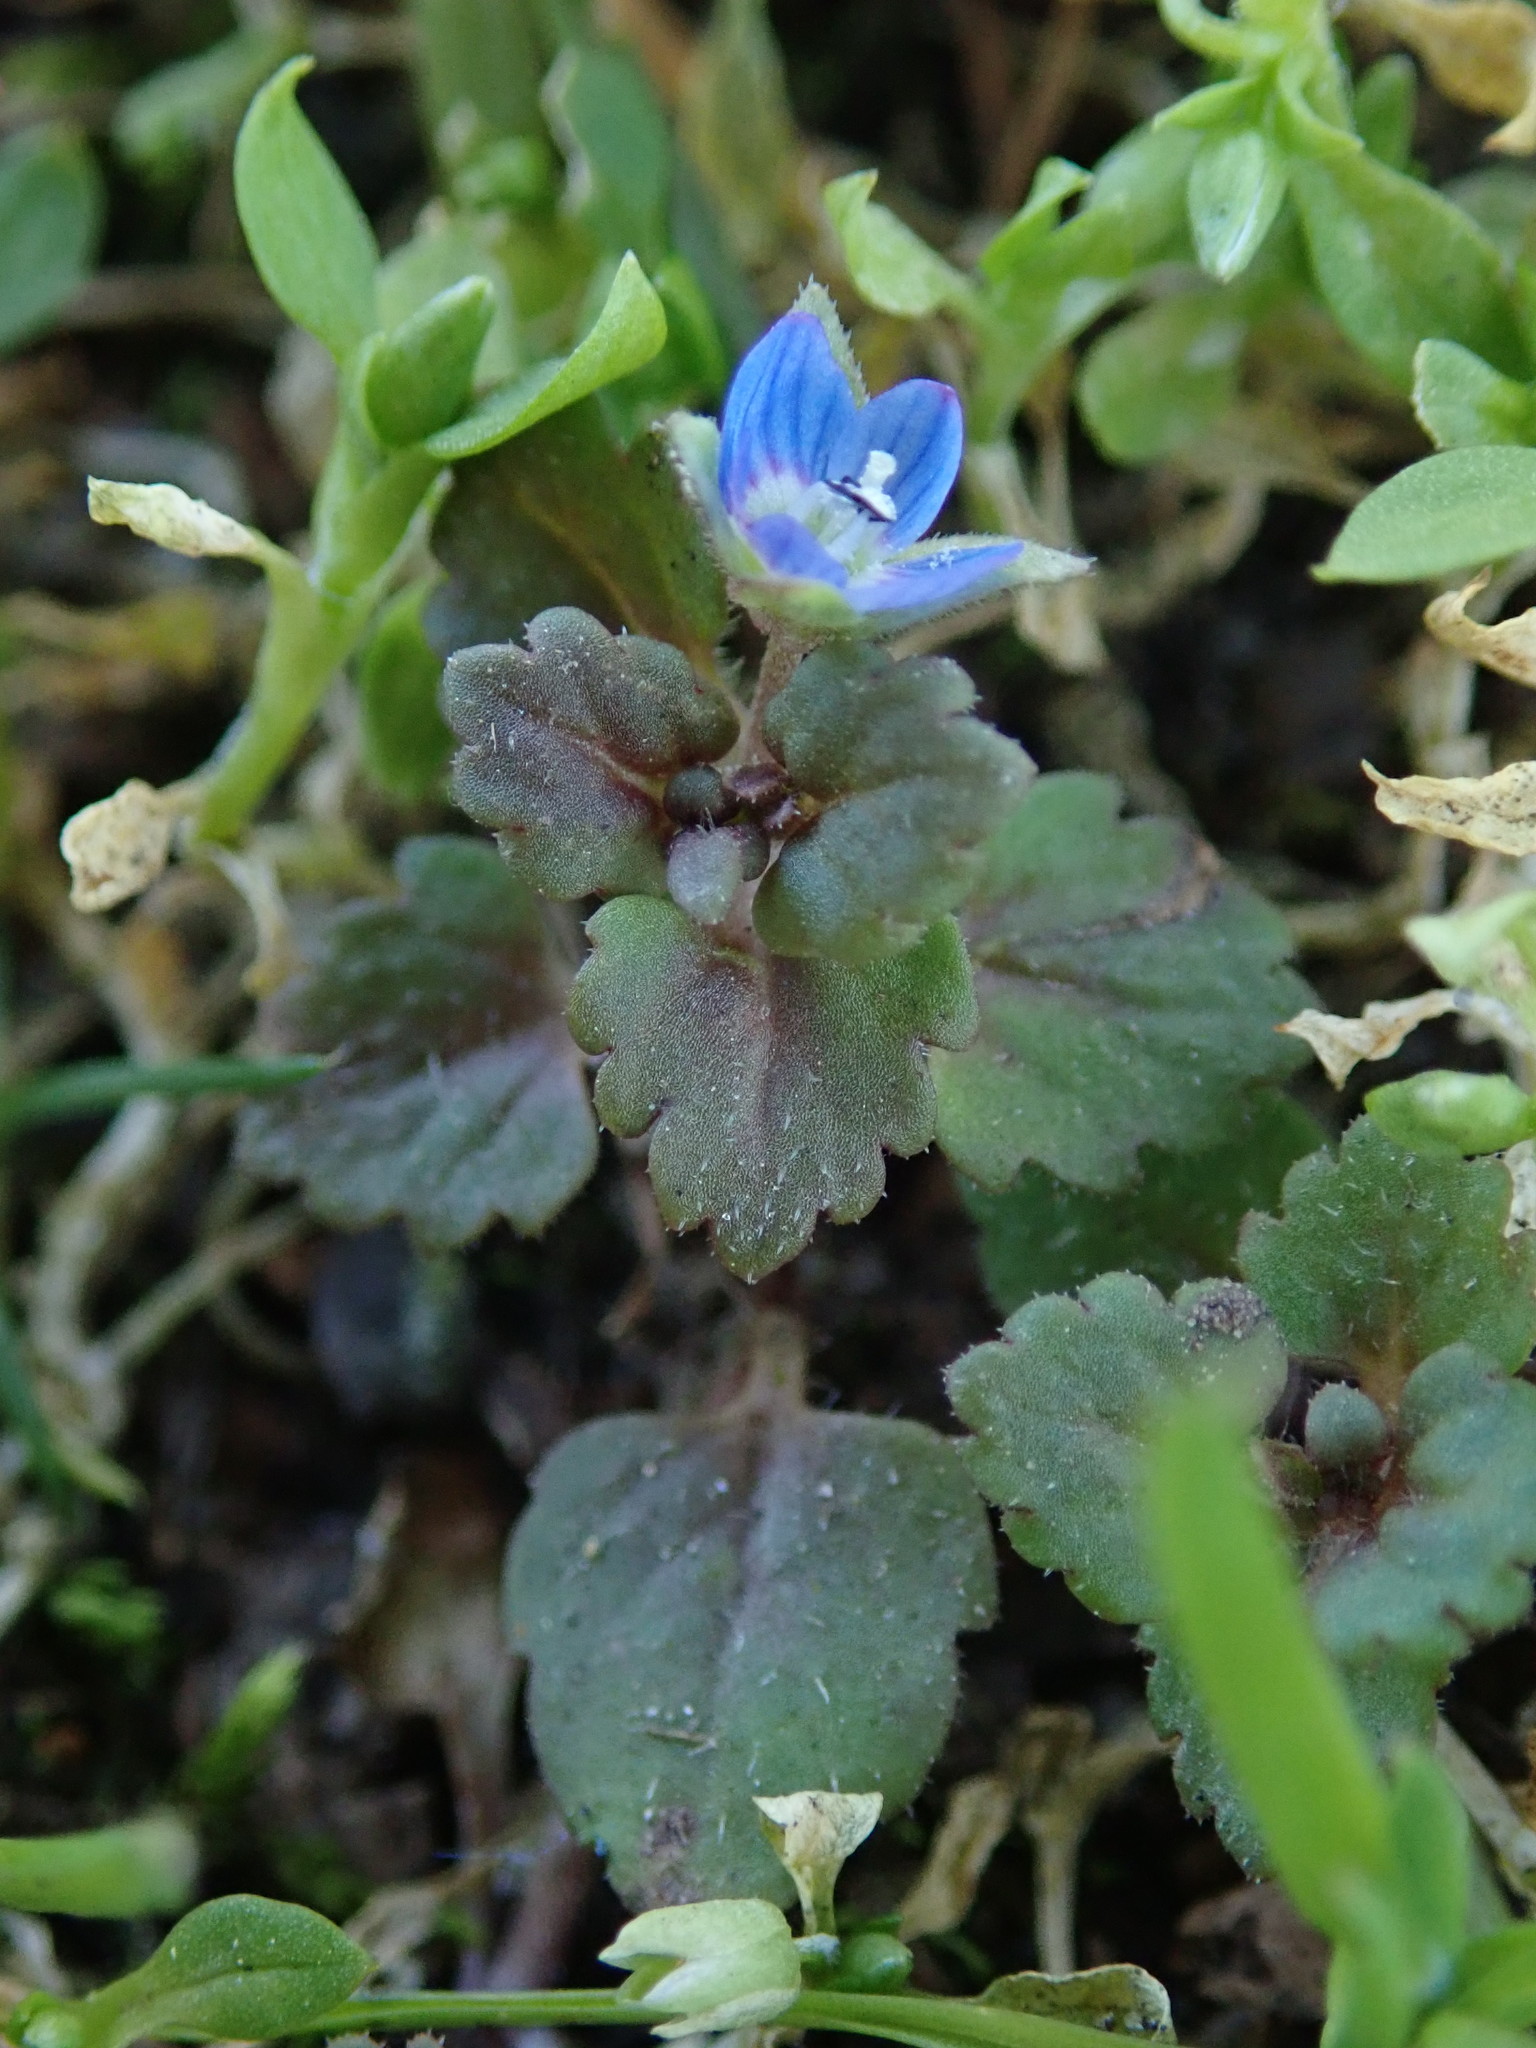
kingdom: Plantae
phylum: Tracheophyta
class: Magnoliopsida
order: Lamiales
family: Plantaginaceae
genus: Veronica
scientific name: Veronica persica
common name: Common field-speedwell
